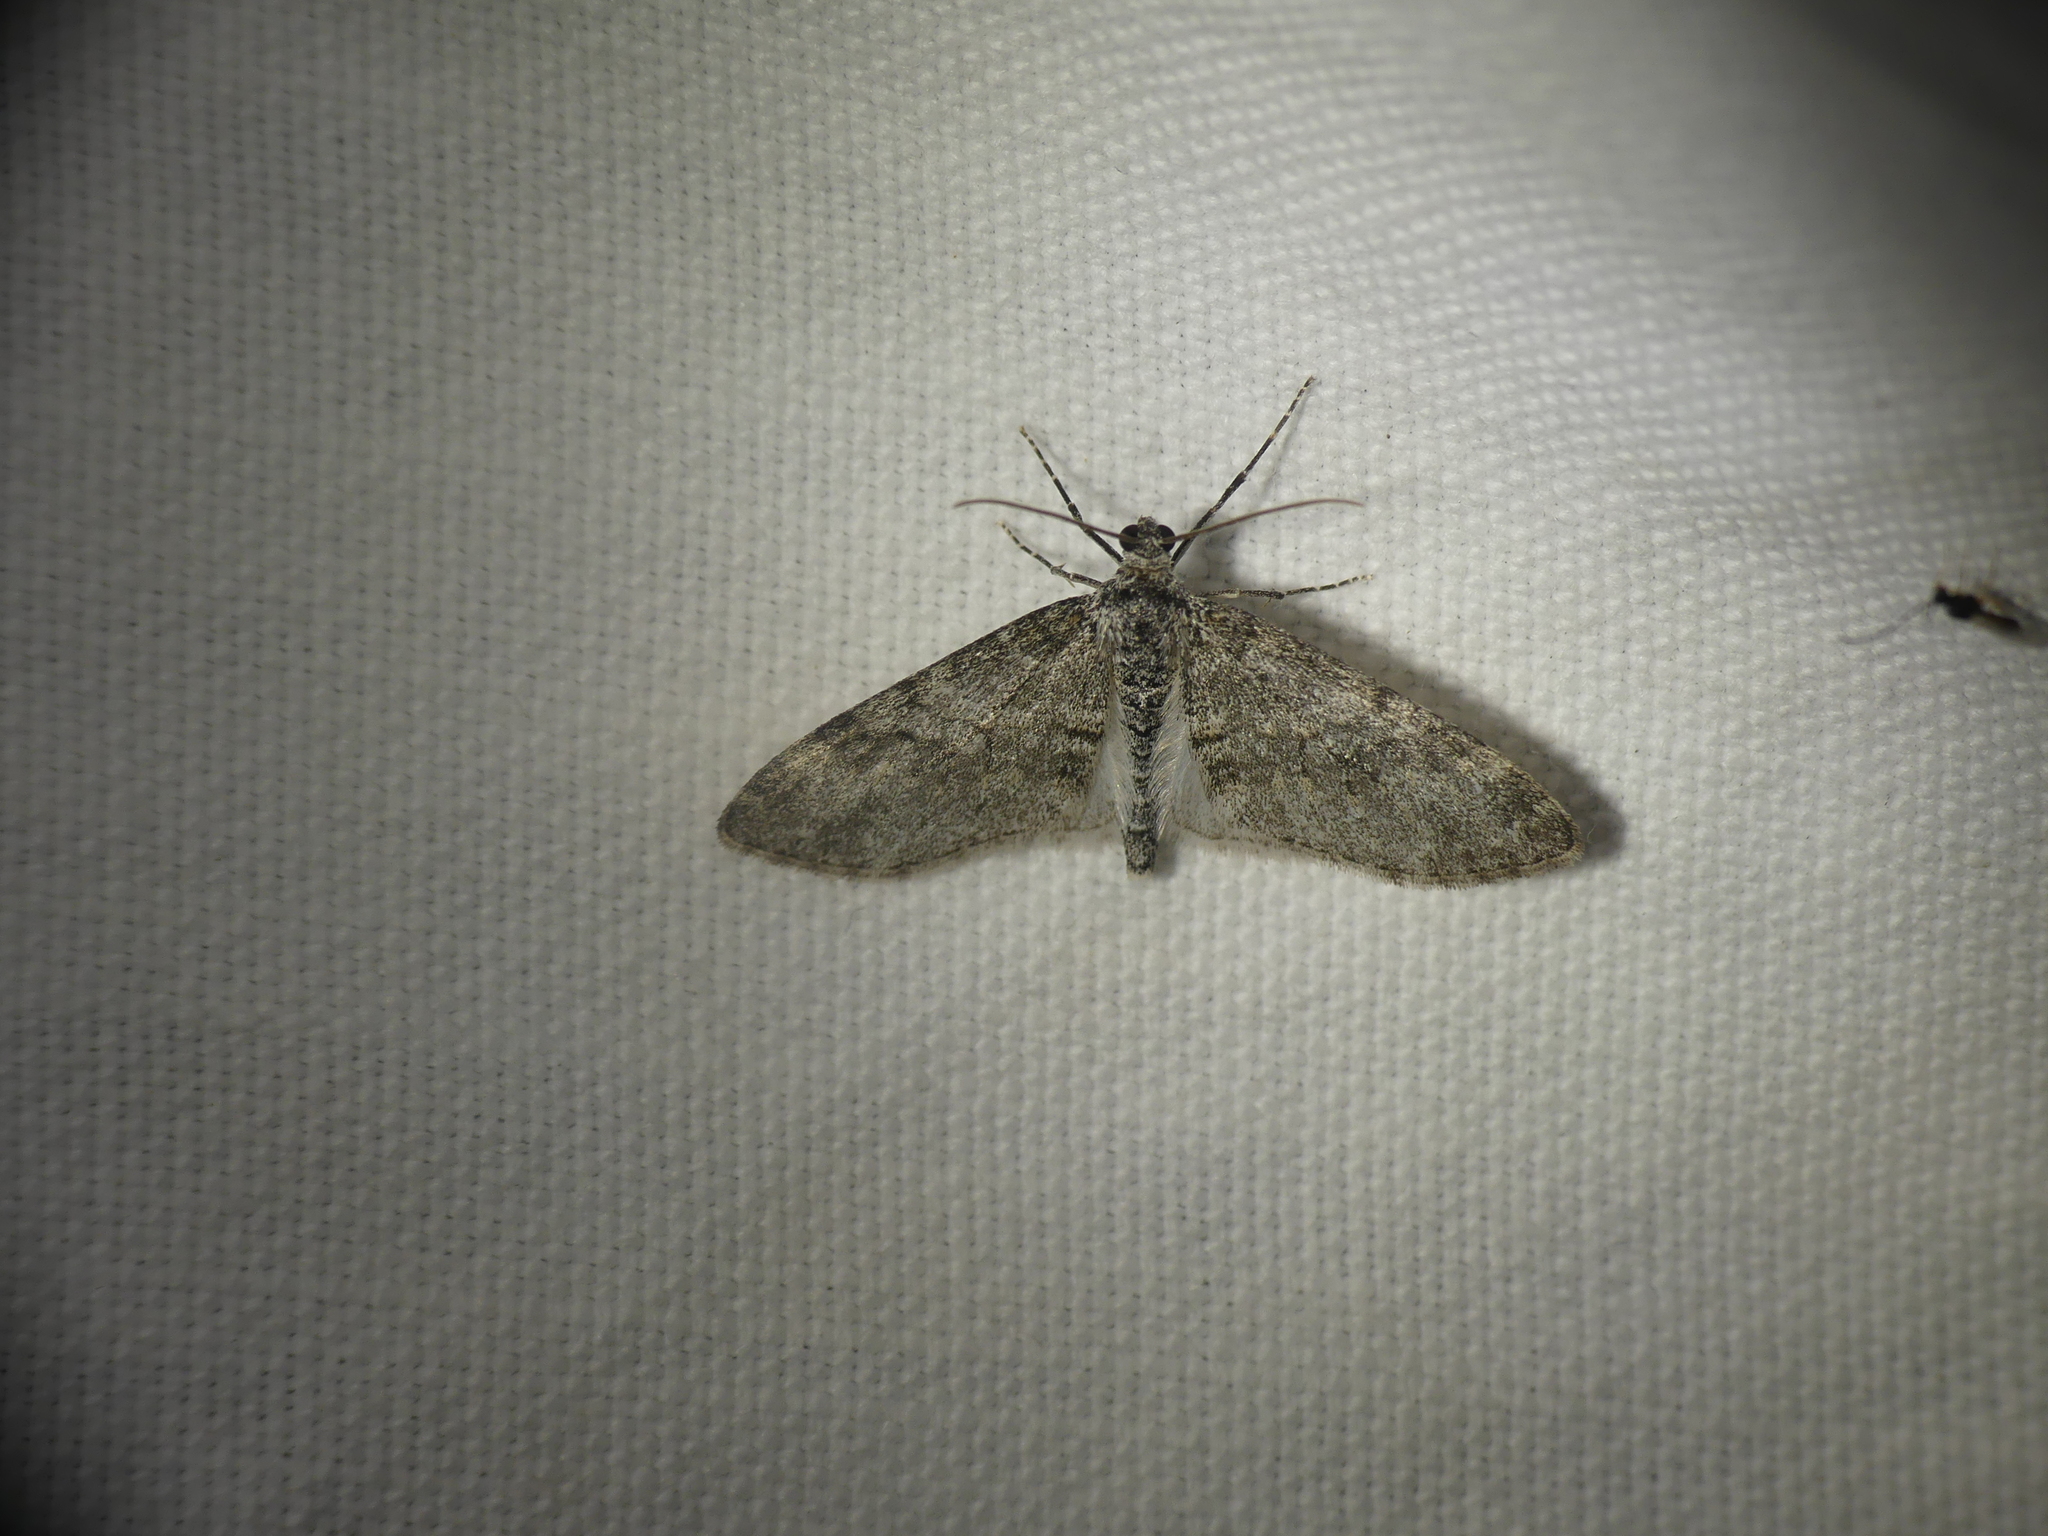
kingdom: Animalia
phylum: Arthropoda
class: Insecta
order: Lepidoptera
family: Geometridae
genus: Lobophora
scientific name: Lobophora halterata
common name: Seraphim
